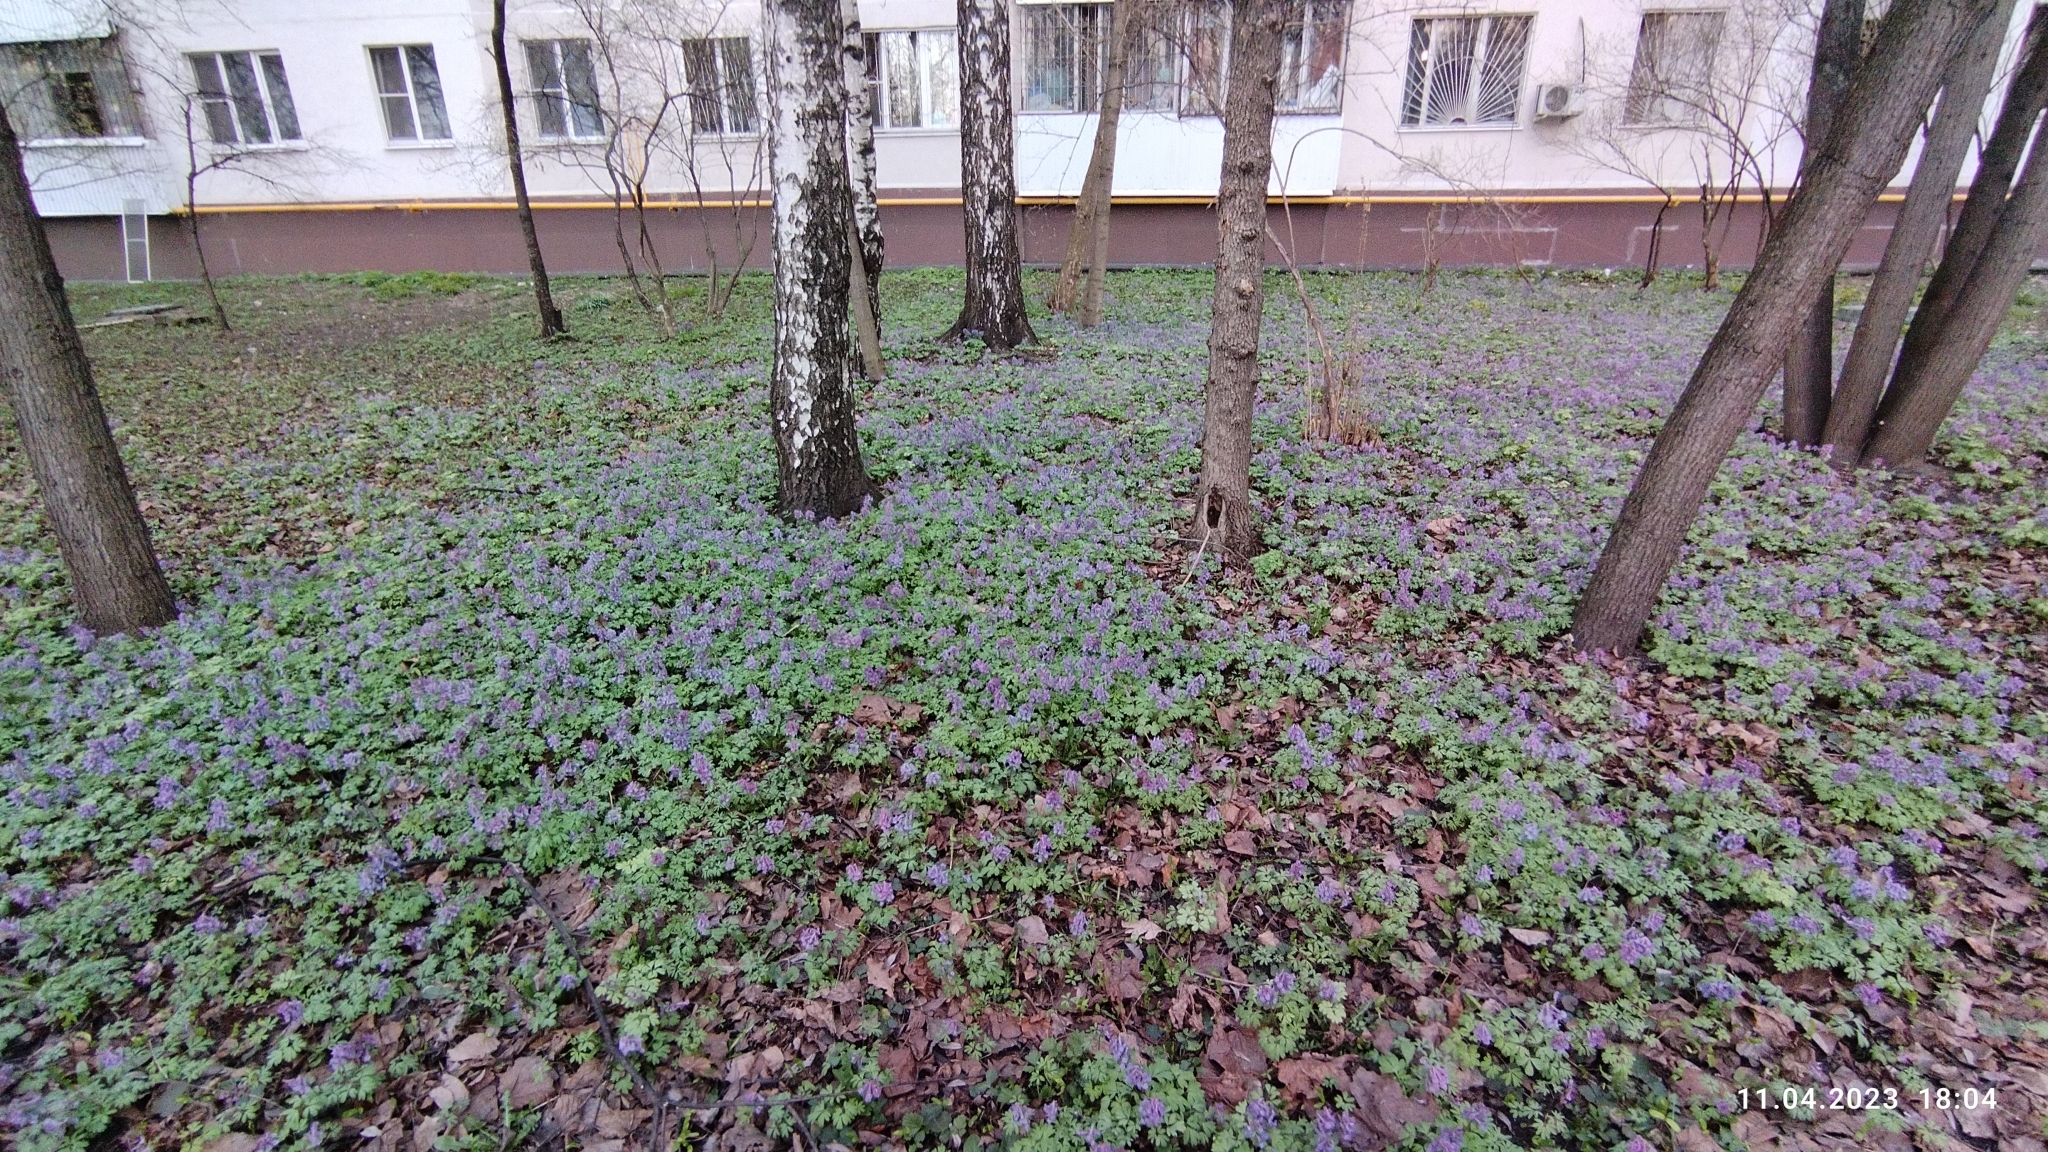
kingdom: Plantae
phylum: Tracheophyta
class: Magnoliopsida
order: Ranunculales
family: Papaveraceae
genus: Corydalis
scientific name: Corydalis solida
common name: Bird-in-a-bush
